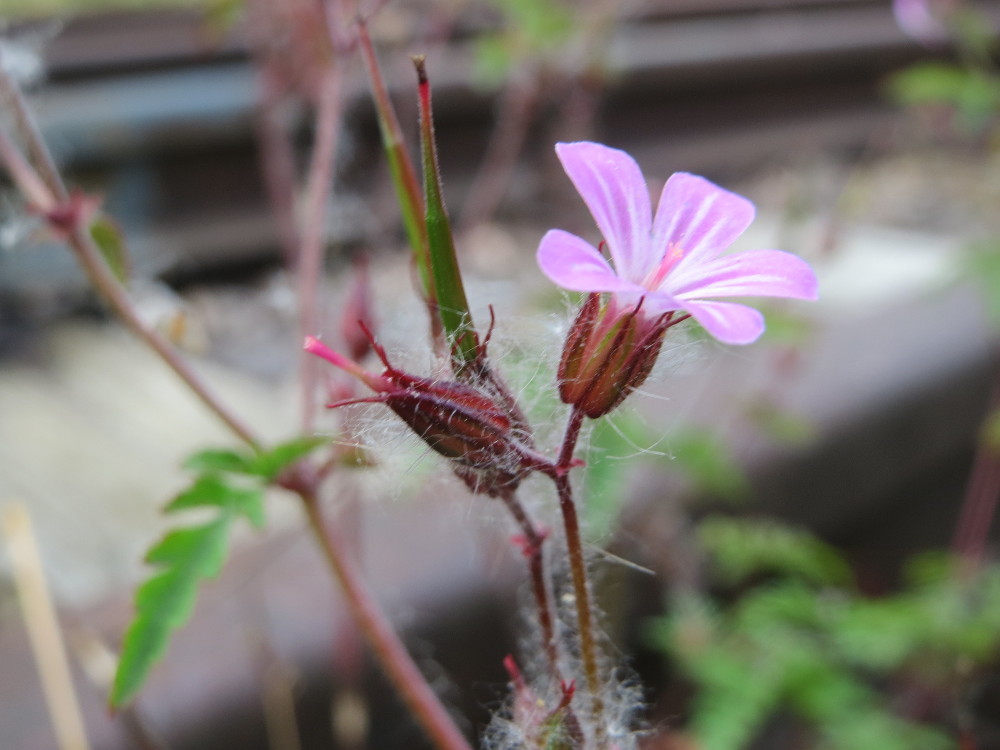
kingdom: Plantae
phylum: Tracheophyta
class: Magnoliopsida
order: Geraniales
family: Geraniaceae
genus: Geranium
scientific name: Geranium robertianum
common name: Herb-robert
